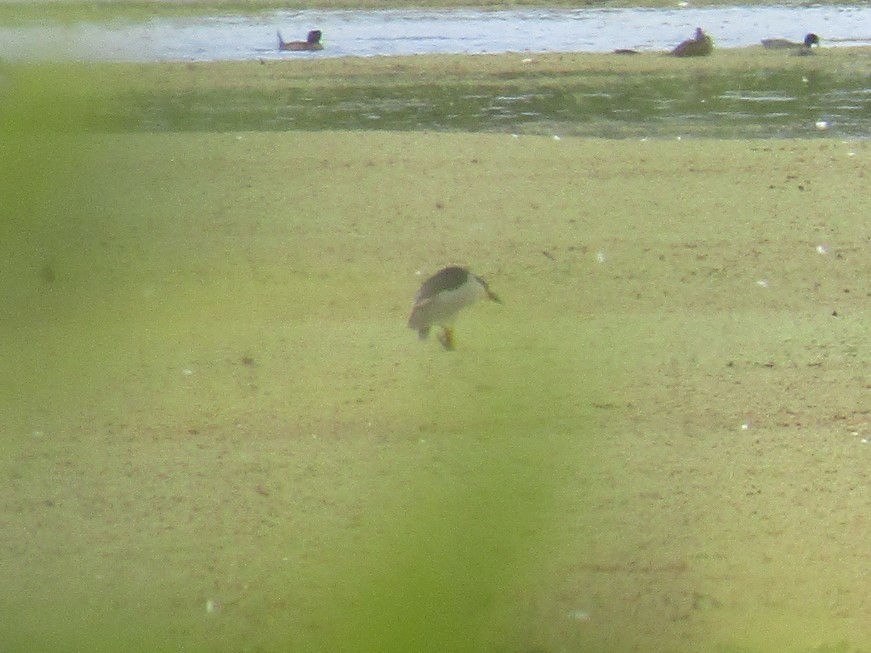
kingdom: Animalia
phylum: Chordata
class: Aves
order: Pelecaniformes
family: Ardeidae
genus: Nycticorax
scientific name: Nycticorax nycticorax
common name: Black-crowned night heron
